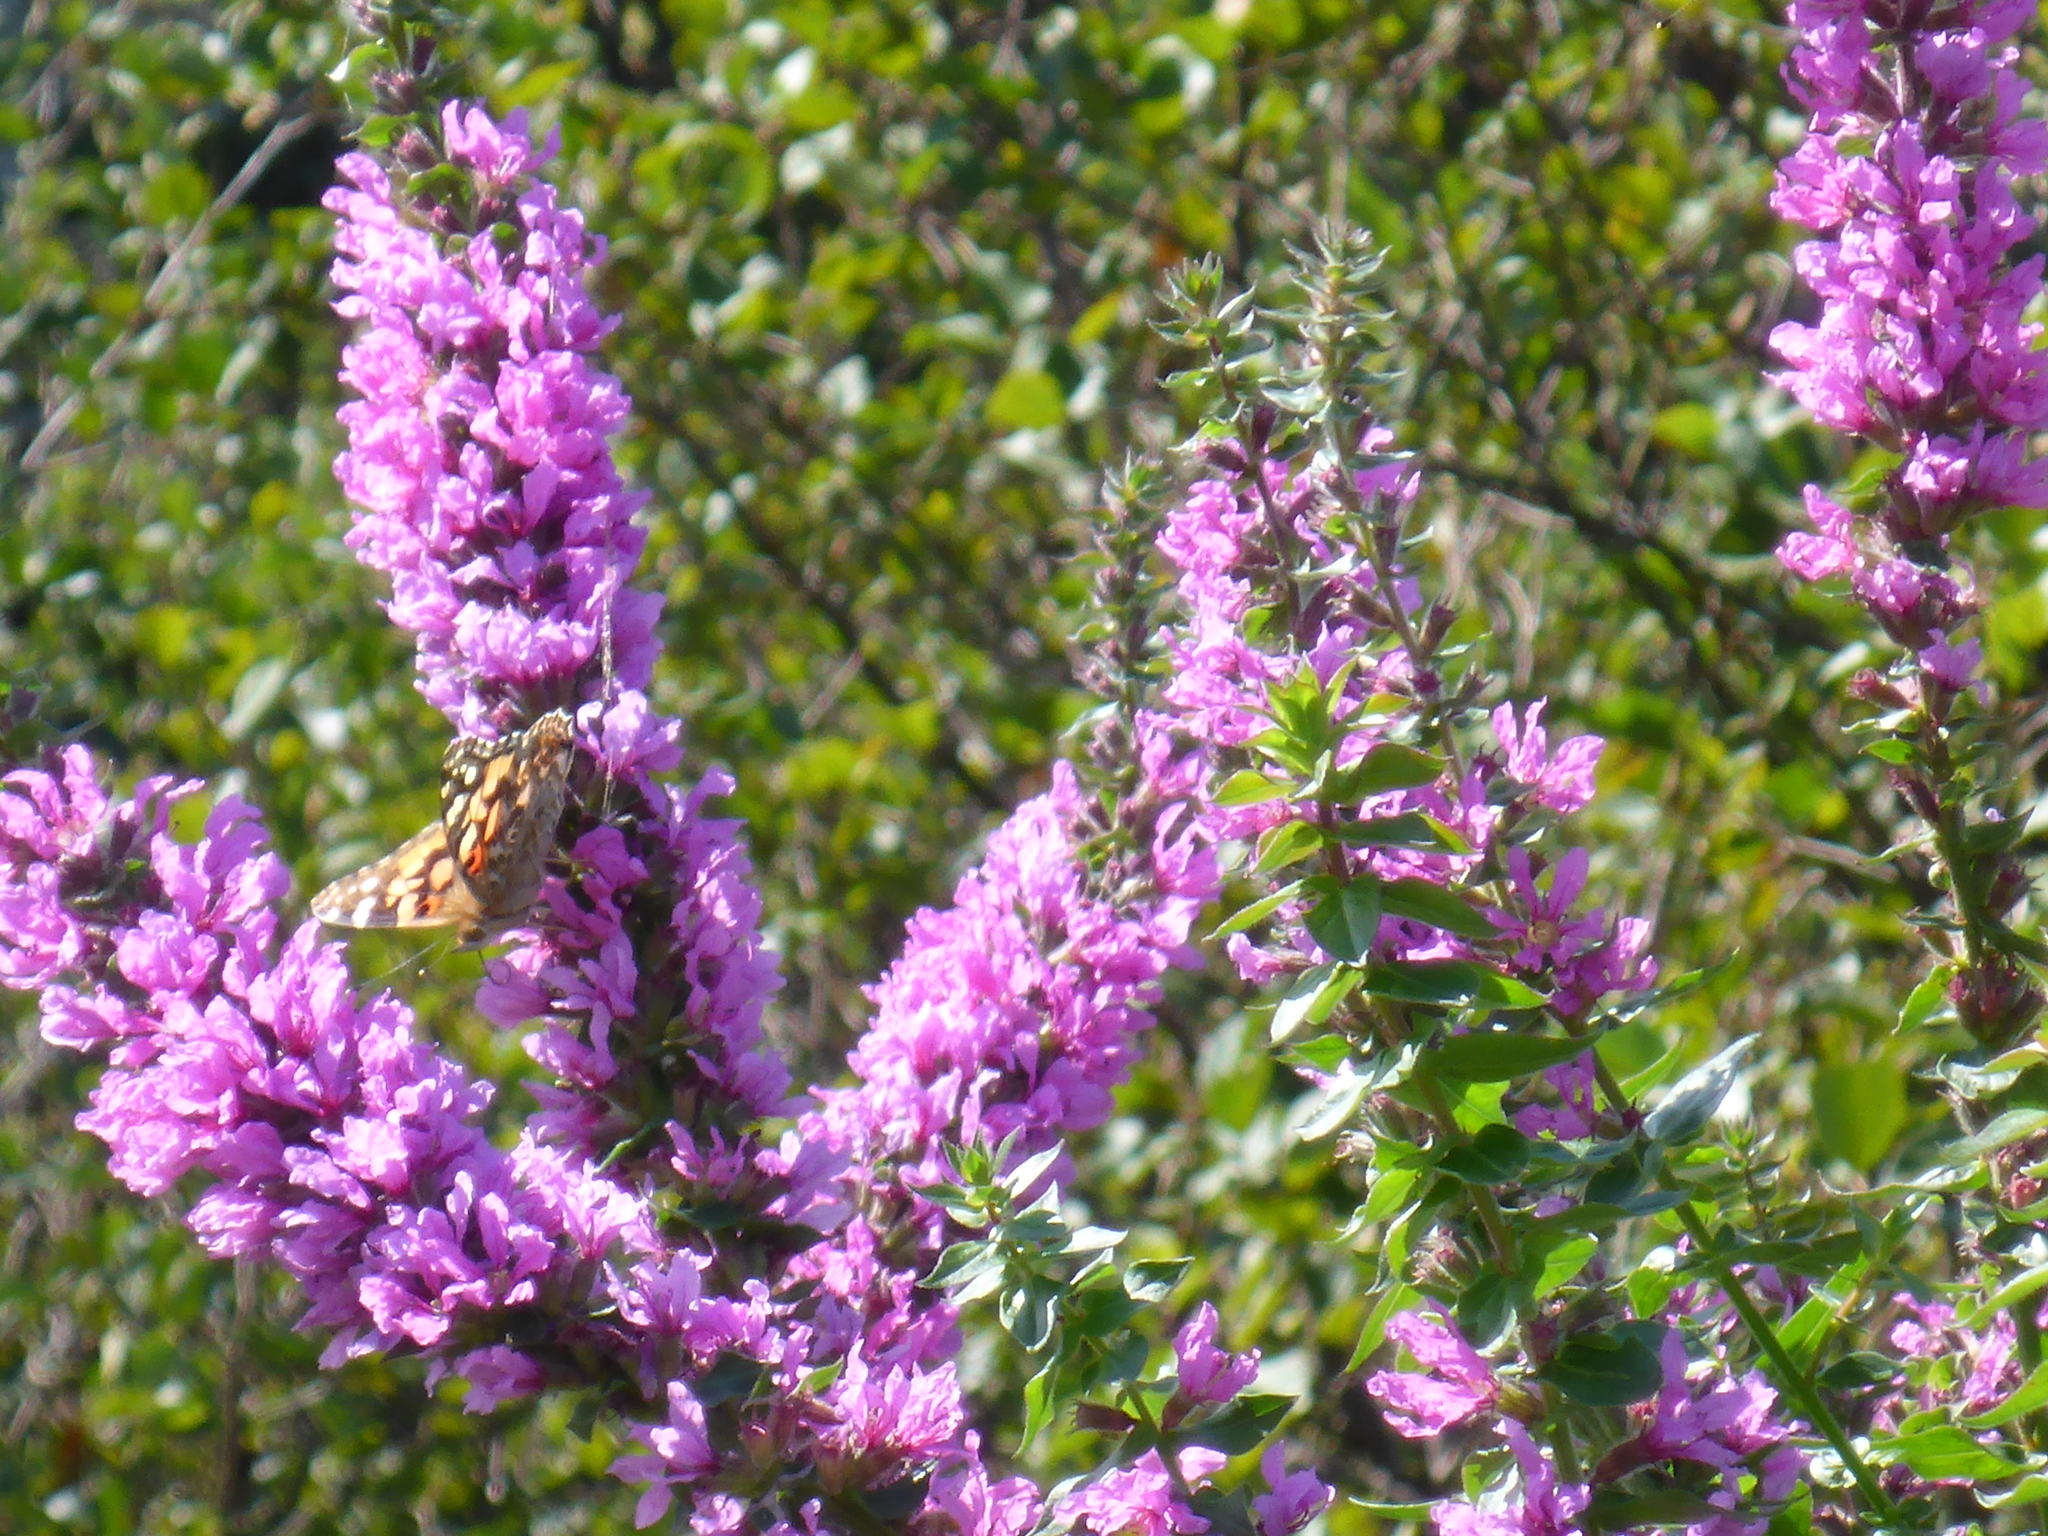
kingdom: Plantae
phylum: Tracheophyta
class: Magnoliopsida
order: Myrtales
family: Lythraceae
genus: Lythrum
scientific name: Lythrum salicaria
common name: Purple loosestrife
